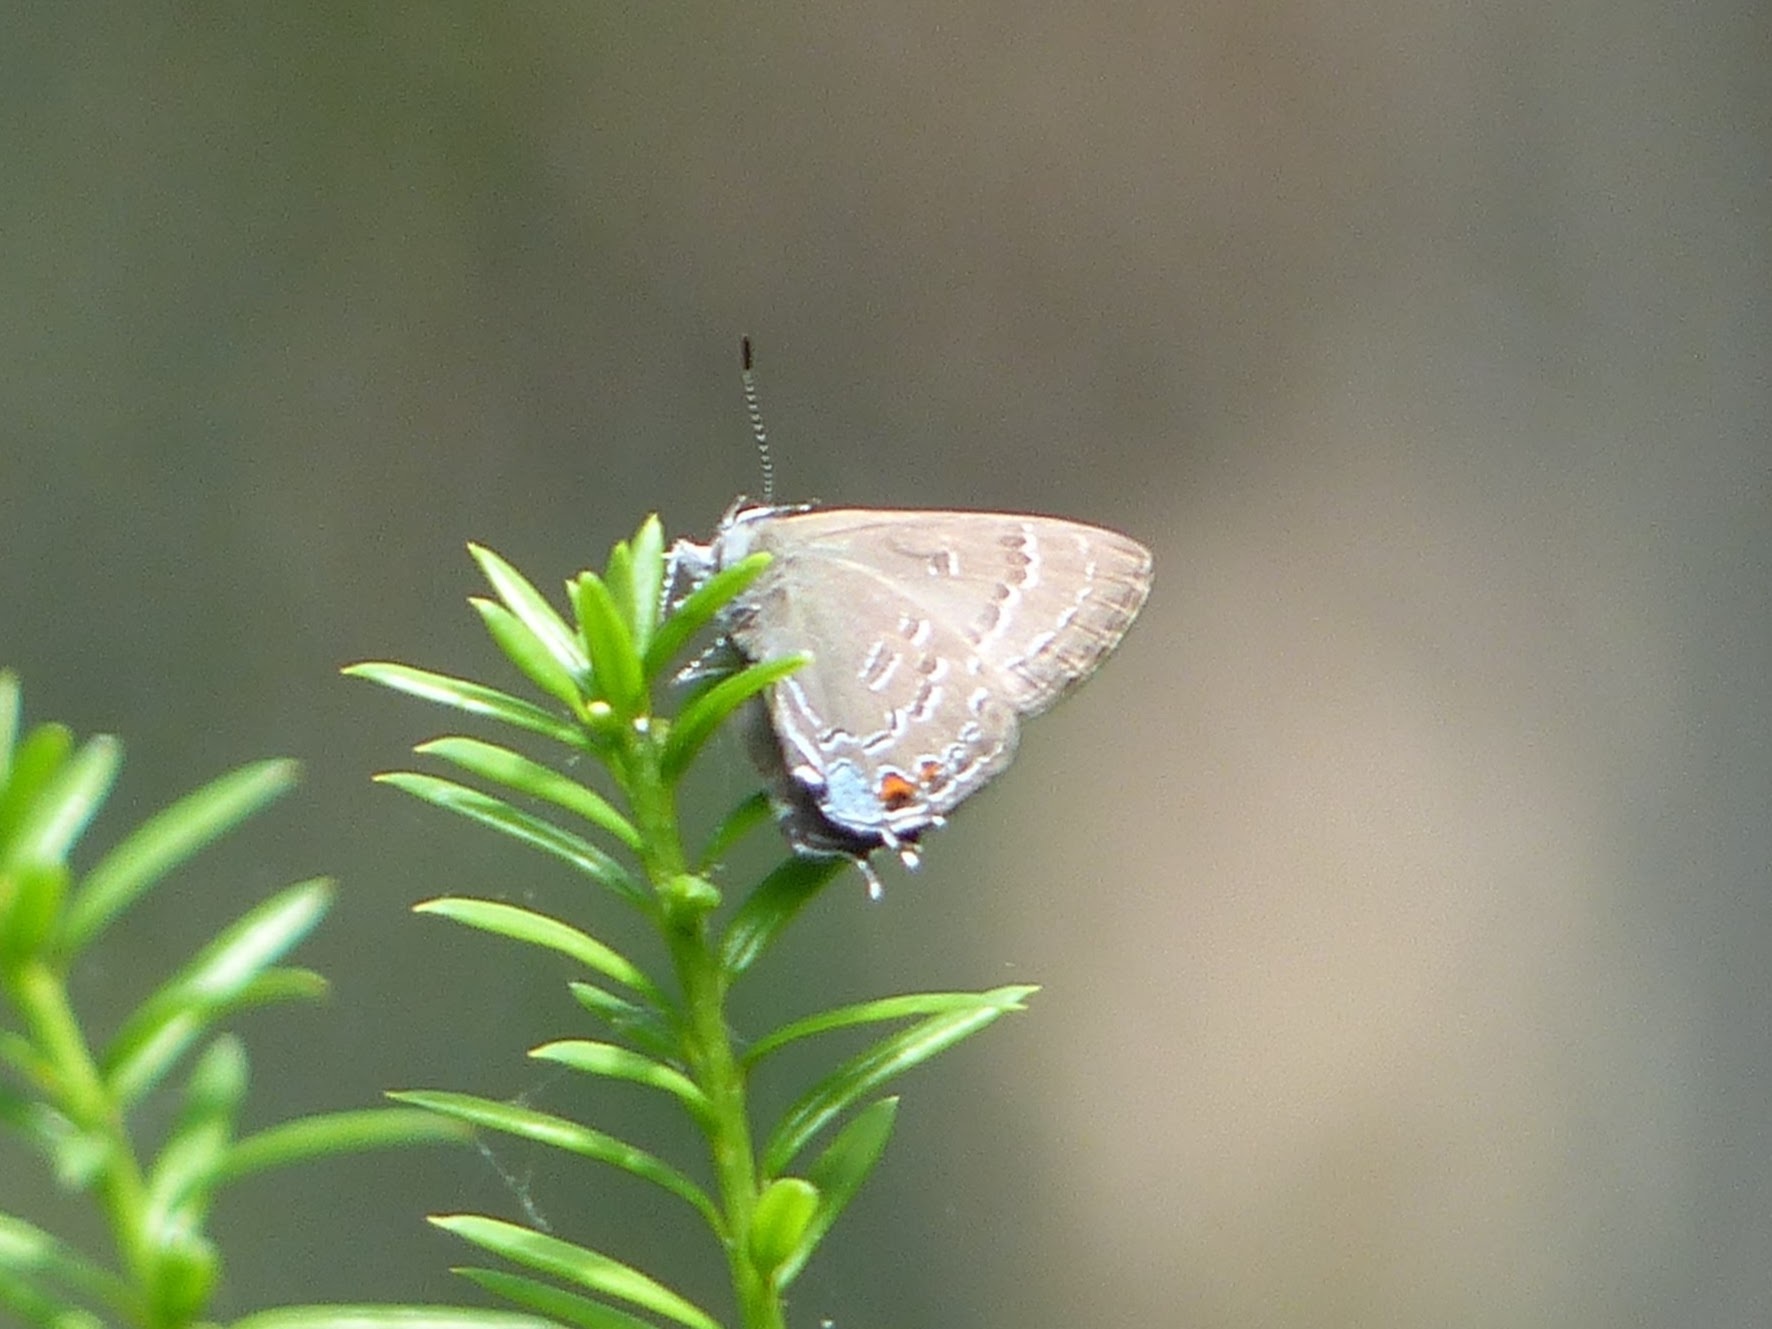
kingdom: Animalia
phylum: Arthropoda
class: Insecta
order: Lepidoptera
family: Lycaenidae
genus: Satyrium
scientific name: Satyrium calanus
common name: Banded hairstreak
